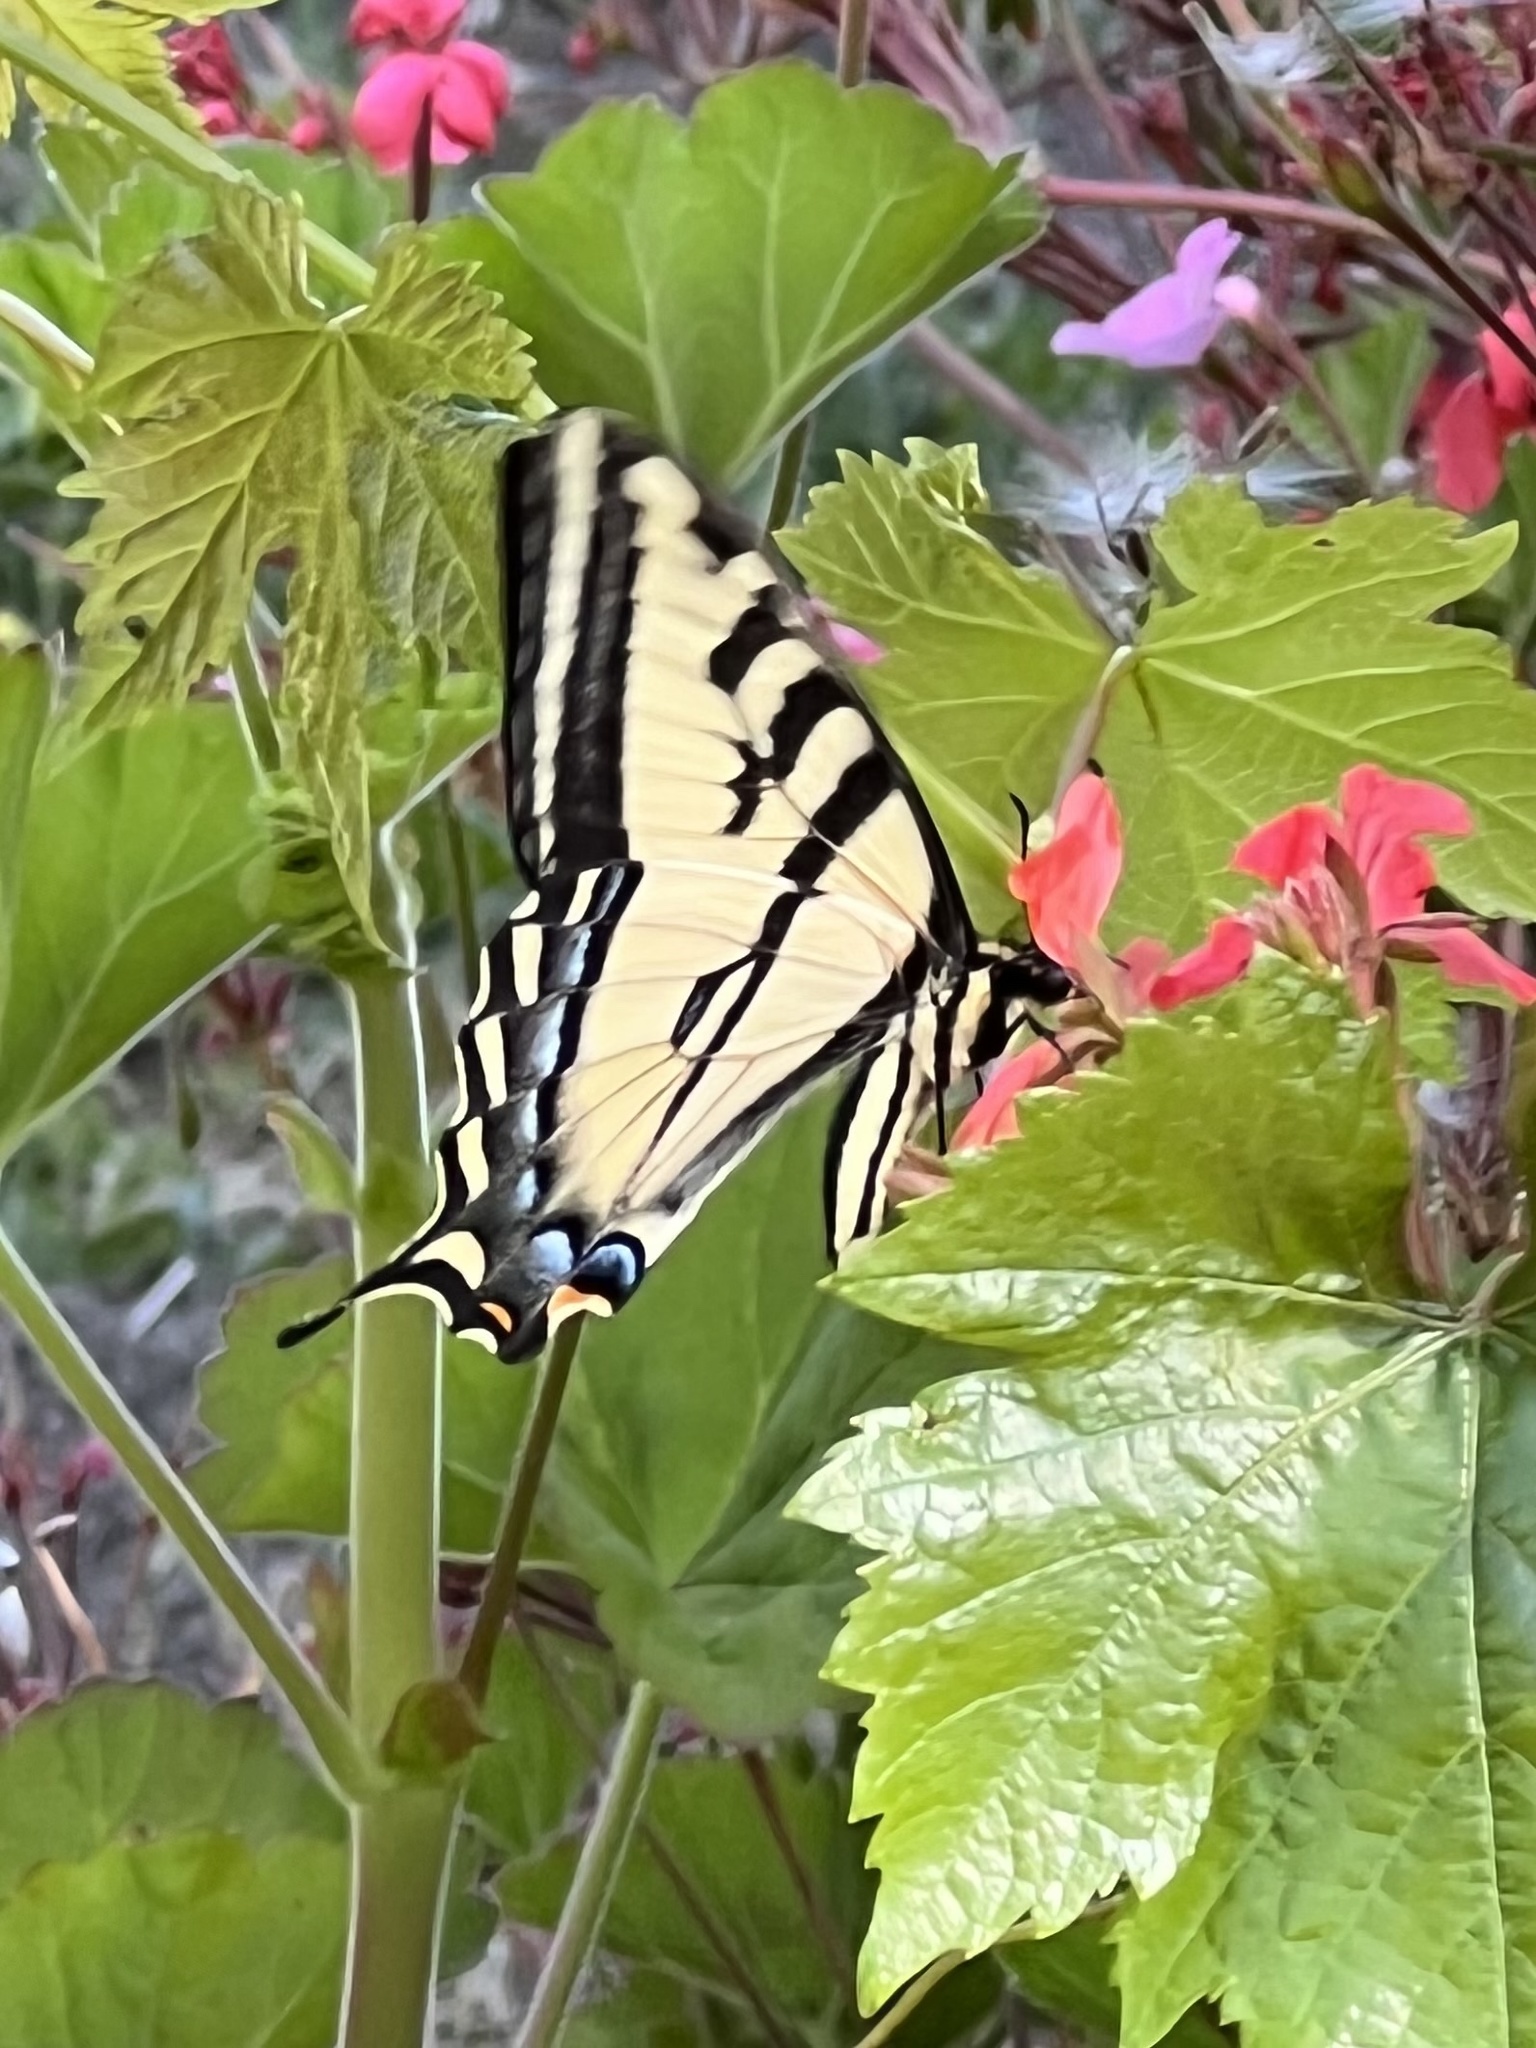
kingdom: Animalia
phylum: Arthropoda
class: Insecta
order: Lepidoptera
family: Papilionidae
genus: Papilio
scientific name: Papilio rutulus
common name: Western tiger swallowtail
